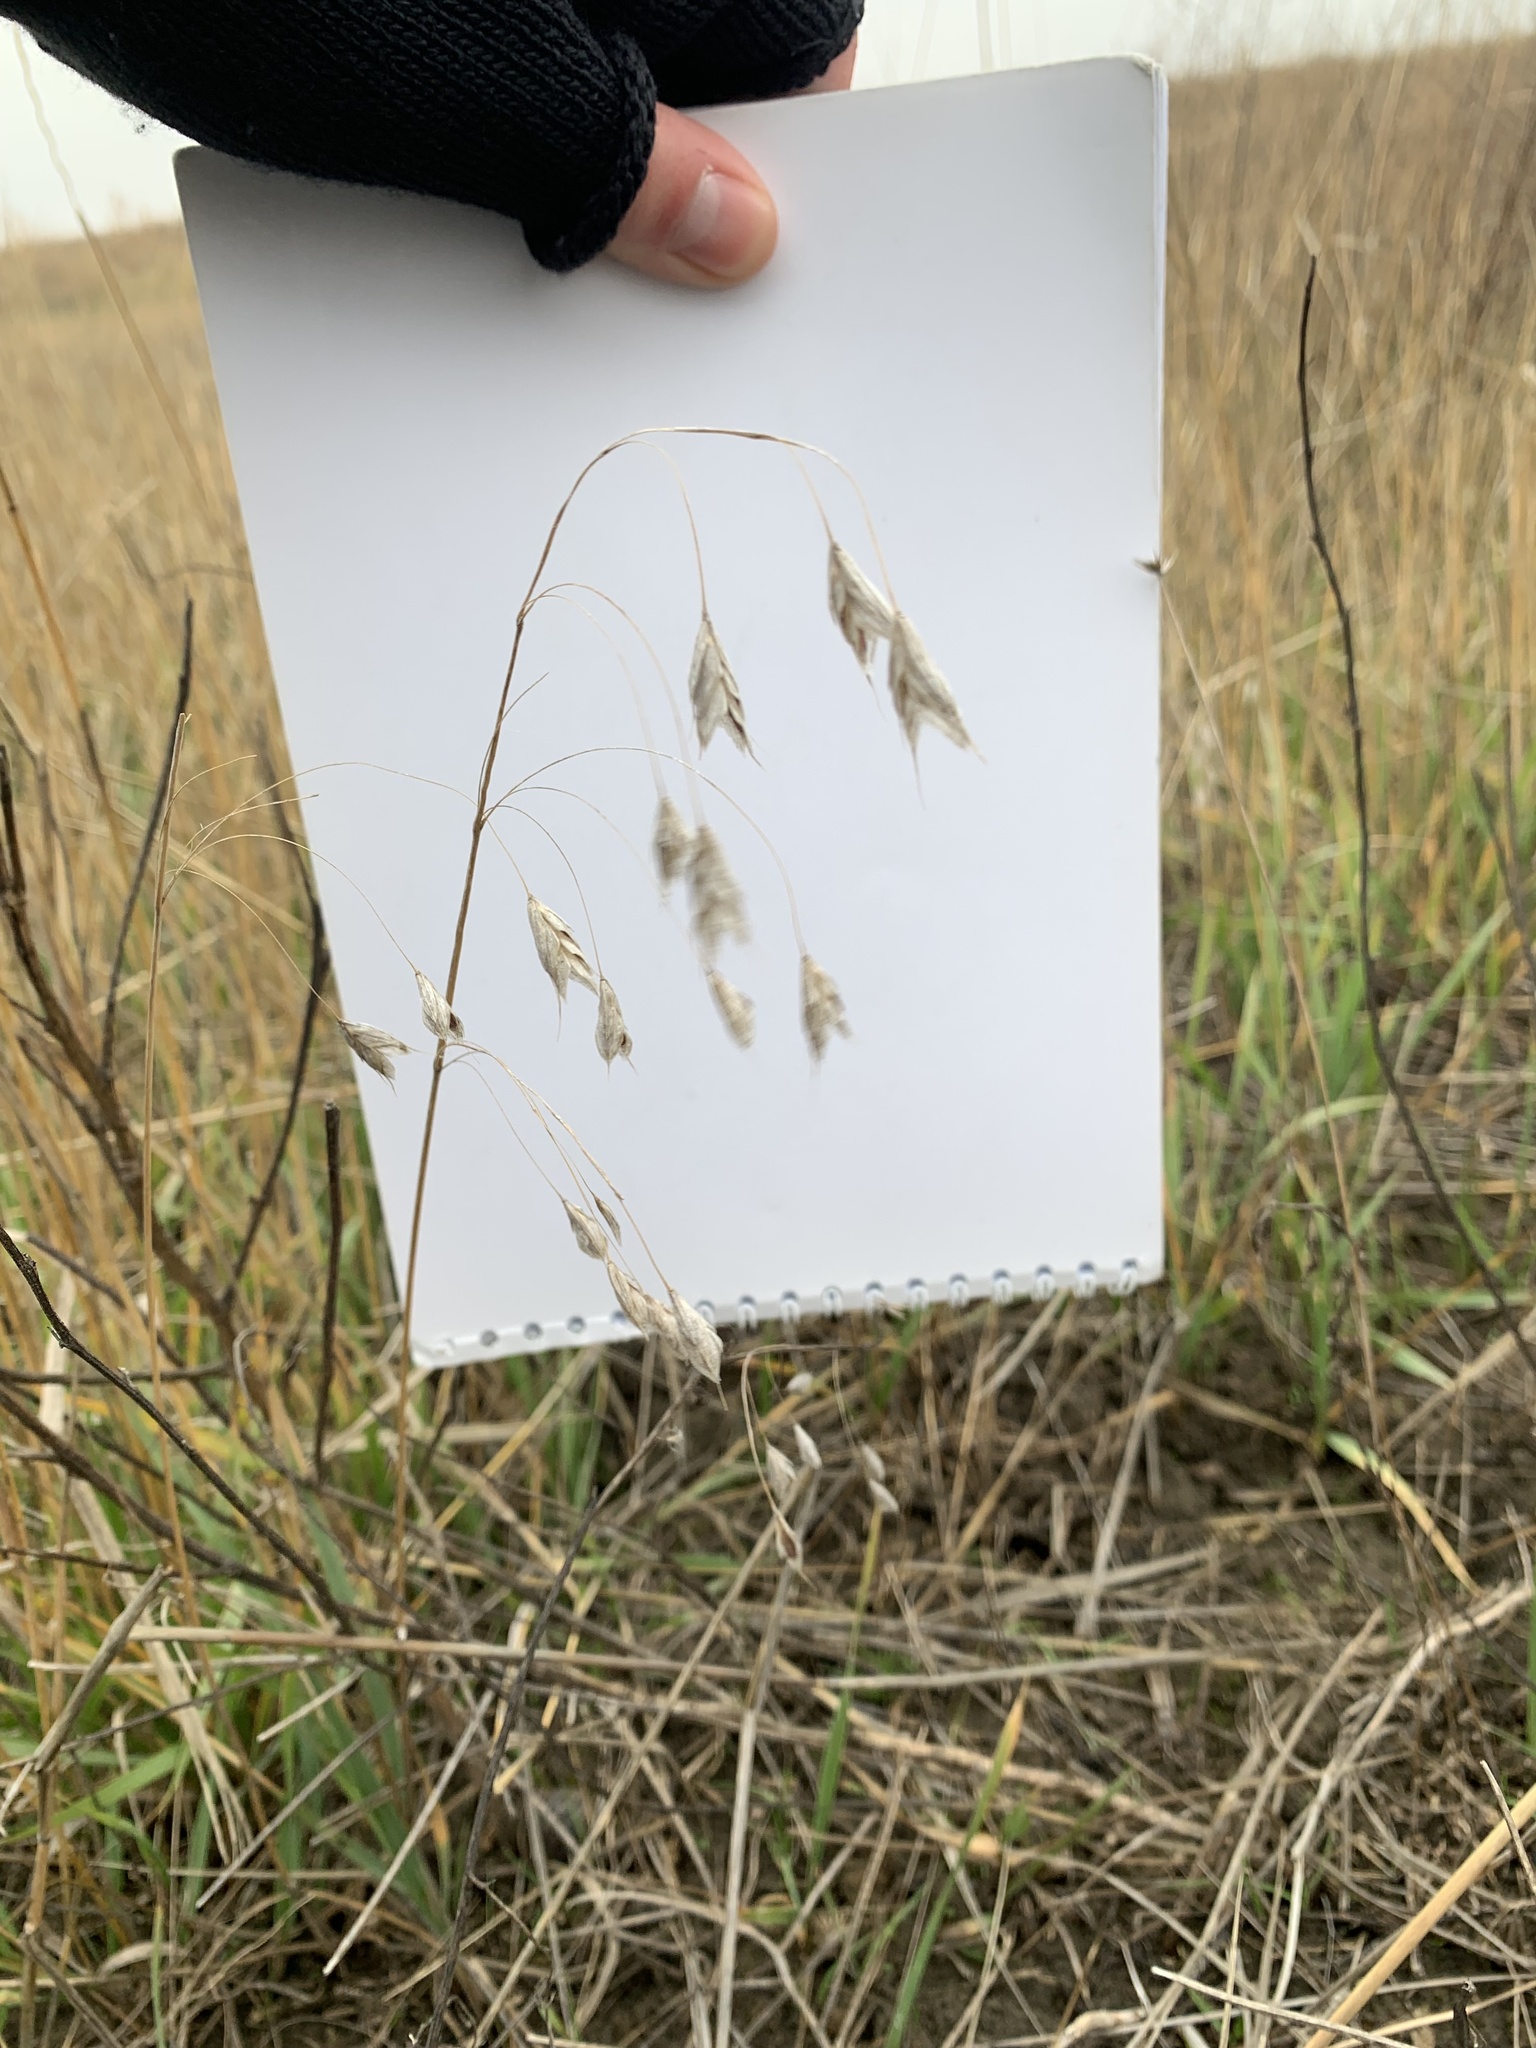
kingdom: Plantae
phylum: Tracheophyta
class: Liliopsida
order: Poales
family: Poaceae
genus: Bromus
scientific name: Bromus squarrosus
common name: Corn brome
